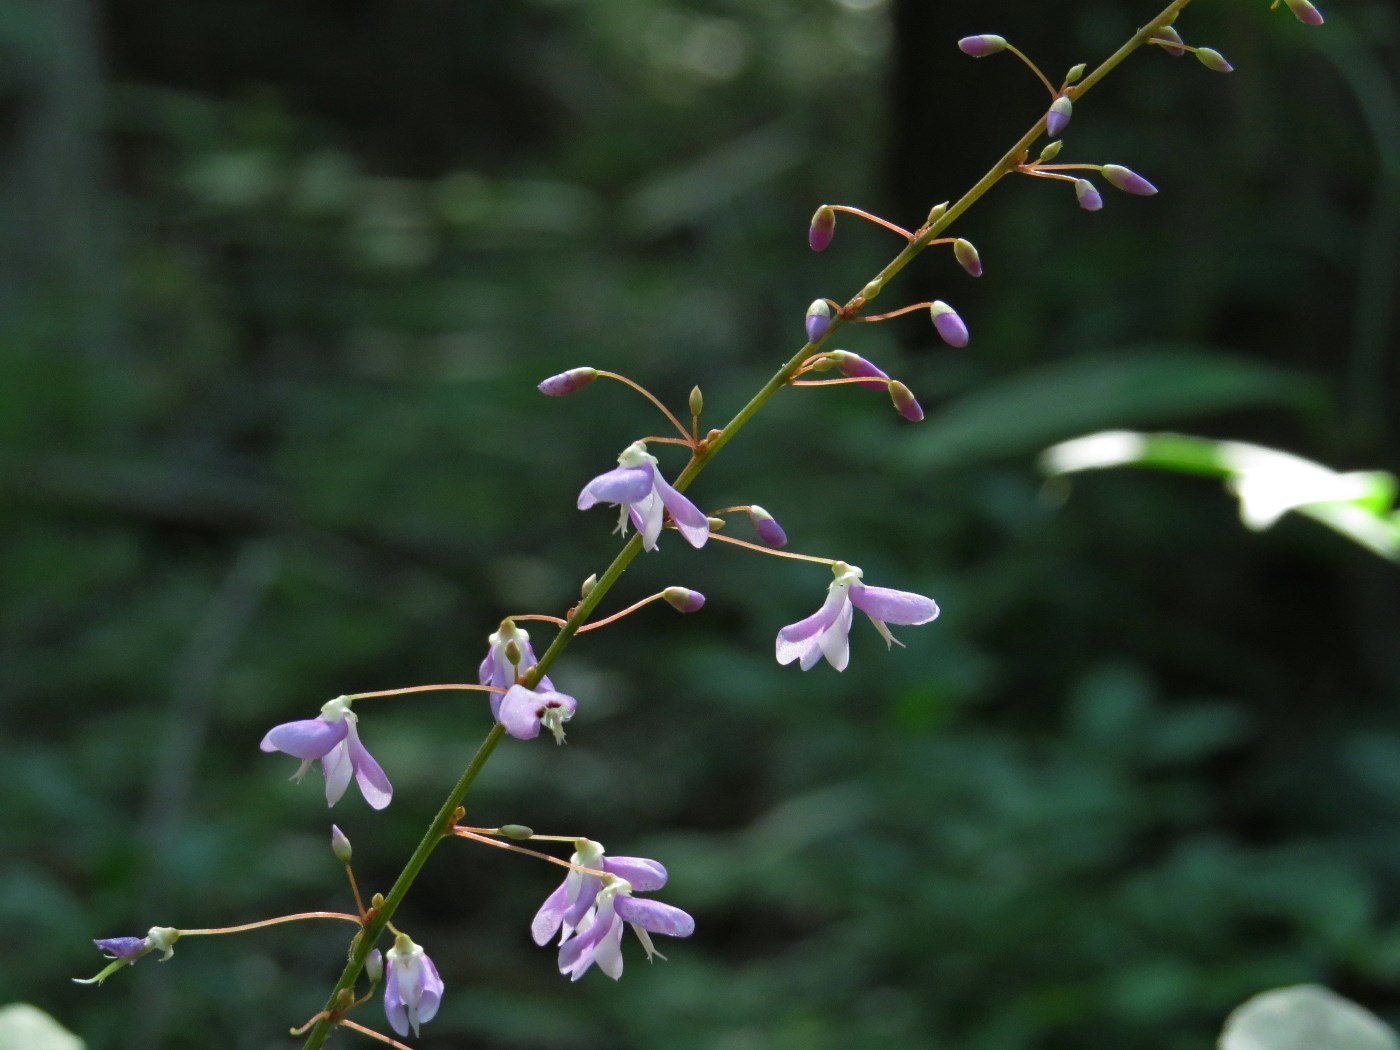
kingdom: Plantae
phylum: Tracheophyta
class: Magnoliopsida
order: Fabales
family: Fabaceae
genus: Hylodesmum
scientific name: Hylodesmum nudiflorum
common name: Bare-stemmed tick-trefoil
